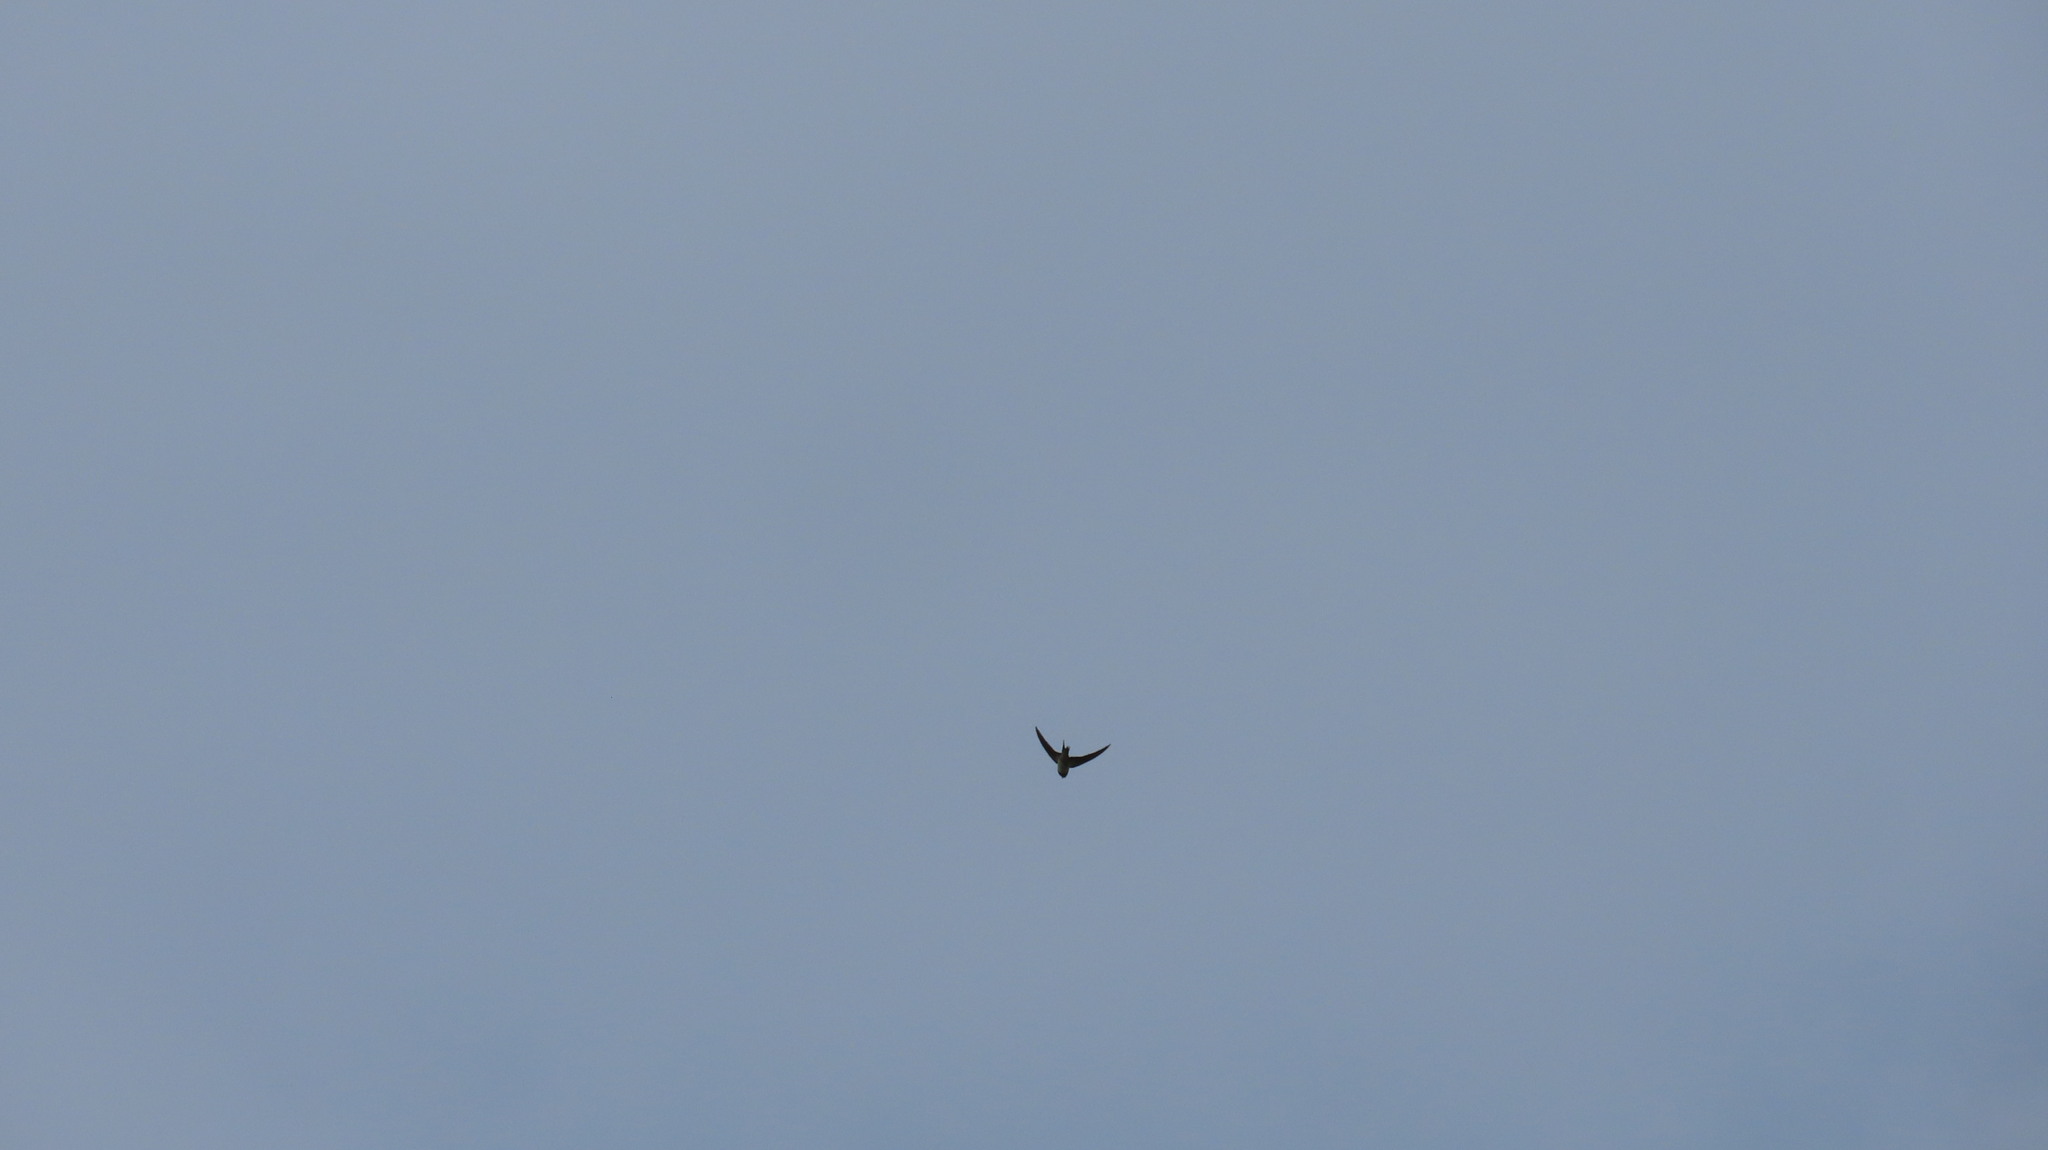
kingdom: Animalia
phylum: Chordata
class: Aves
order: Passeriformes
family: Hirundinidae
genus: Hirundo
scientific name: Hirundo rustica
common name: Barn swallow
